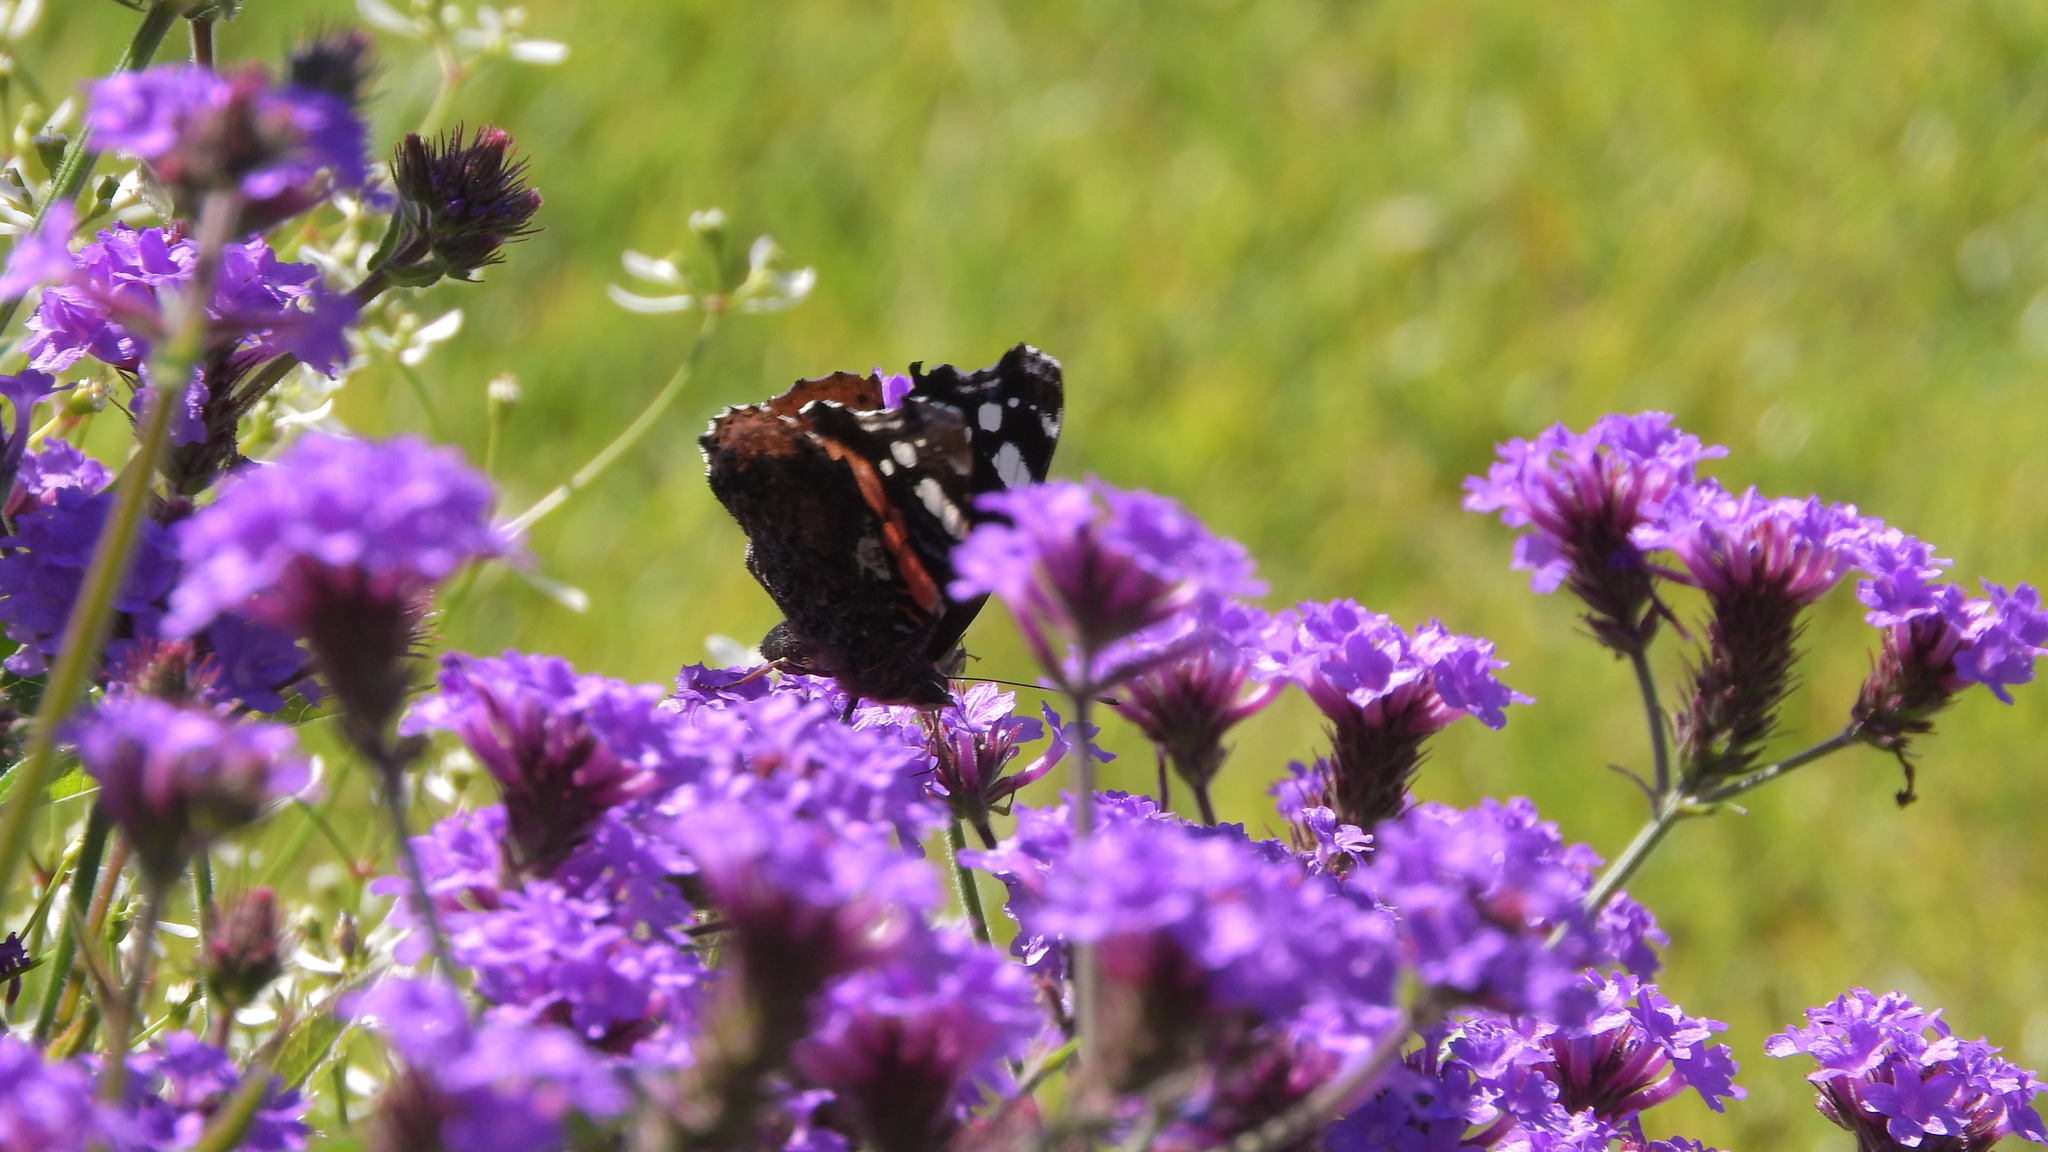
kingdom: Animalia
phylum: Arthropoda
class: Insecta
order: Lepidoptera
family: Nymphalidae
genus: Vanessa
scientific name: Vanessa atalanta
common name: Red admiral
